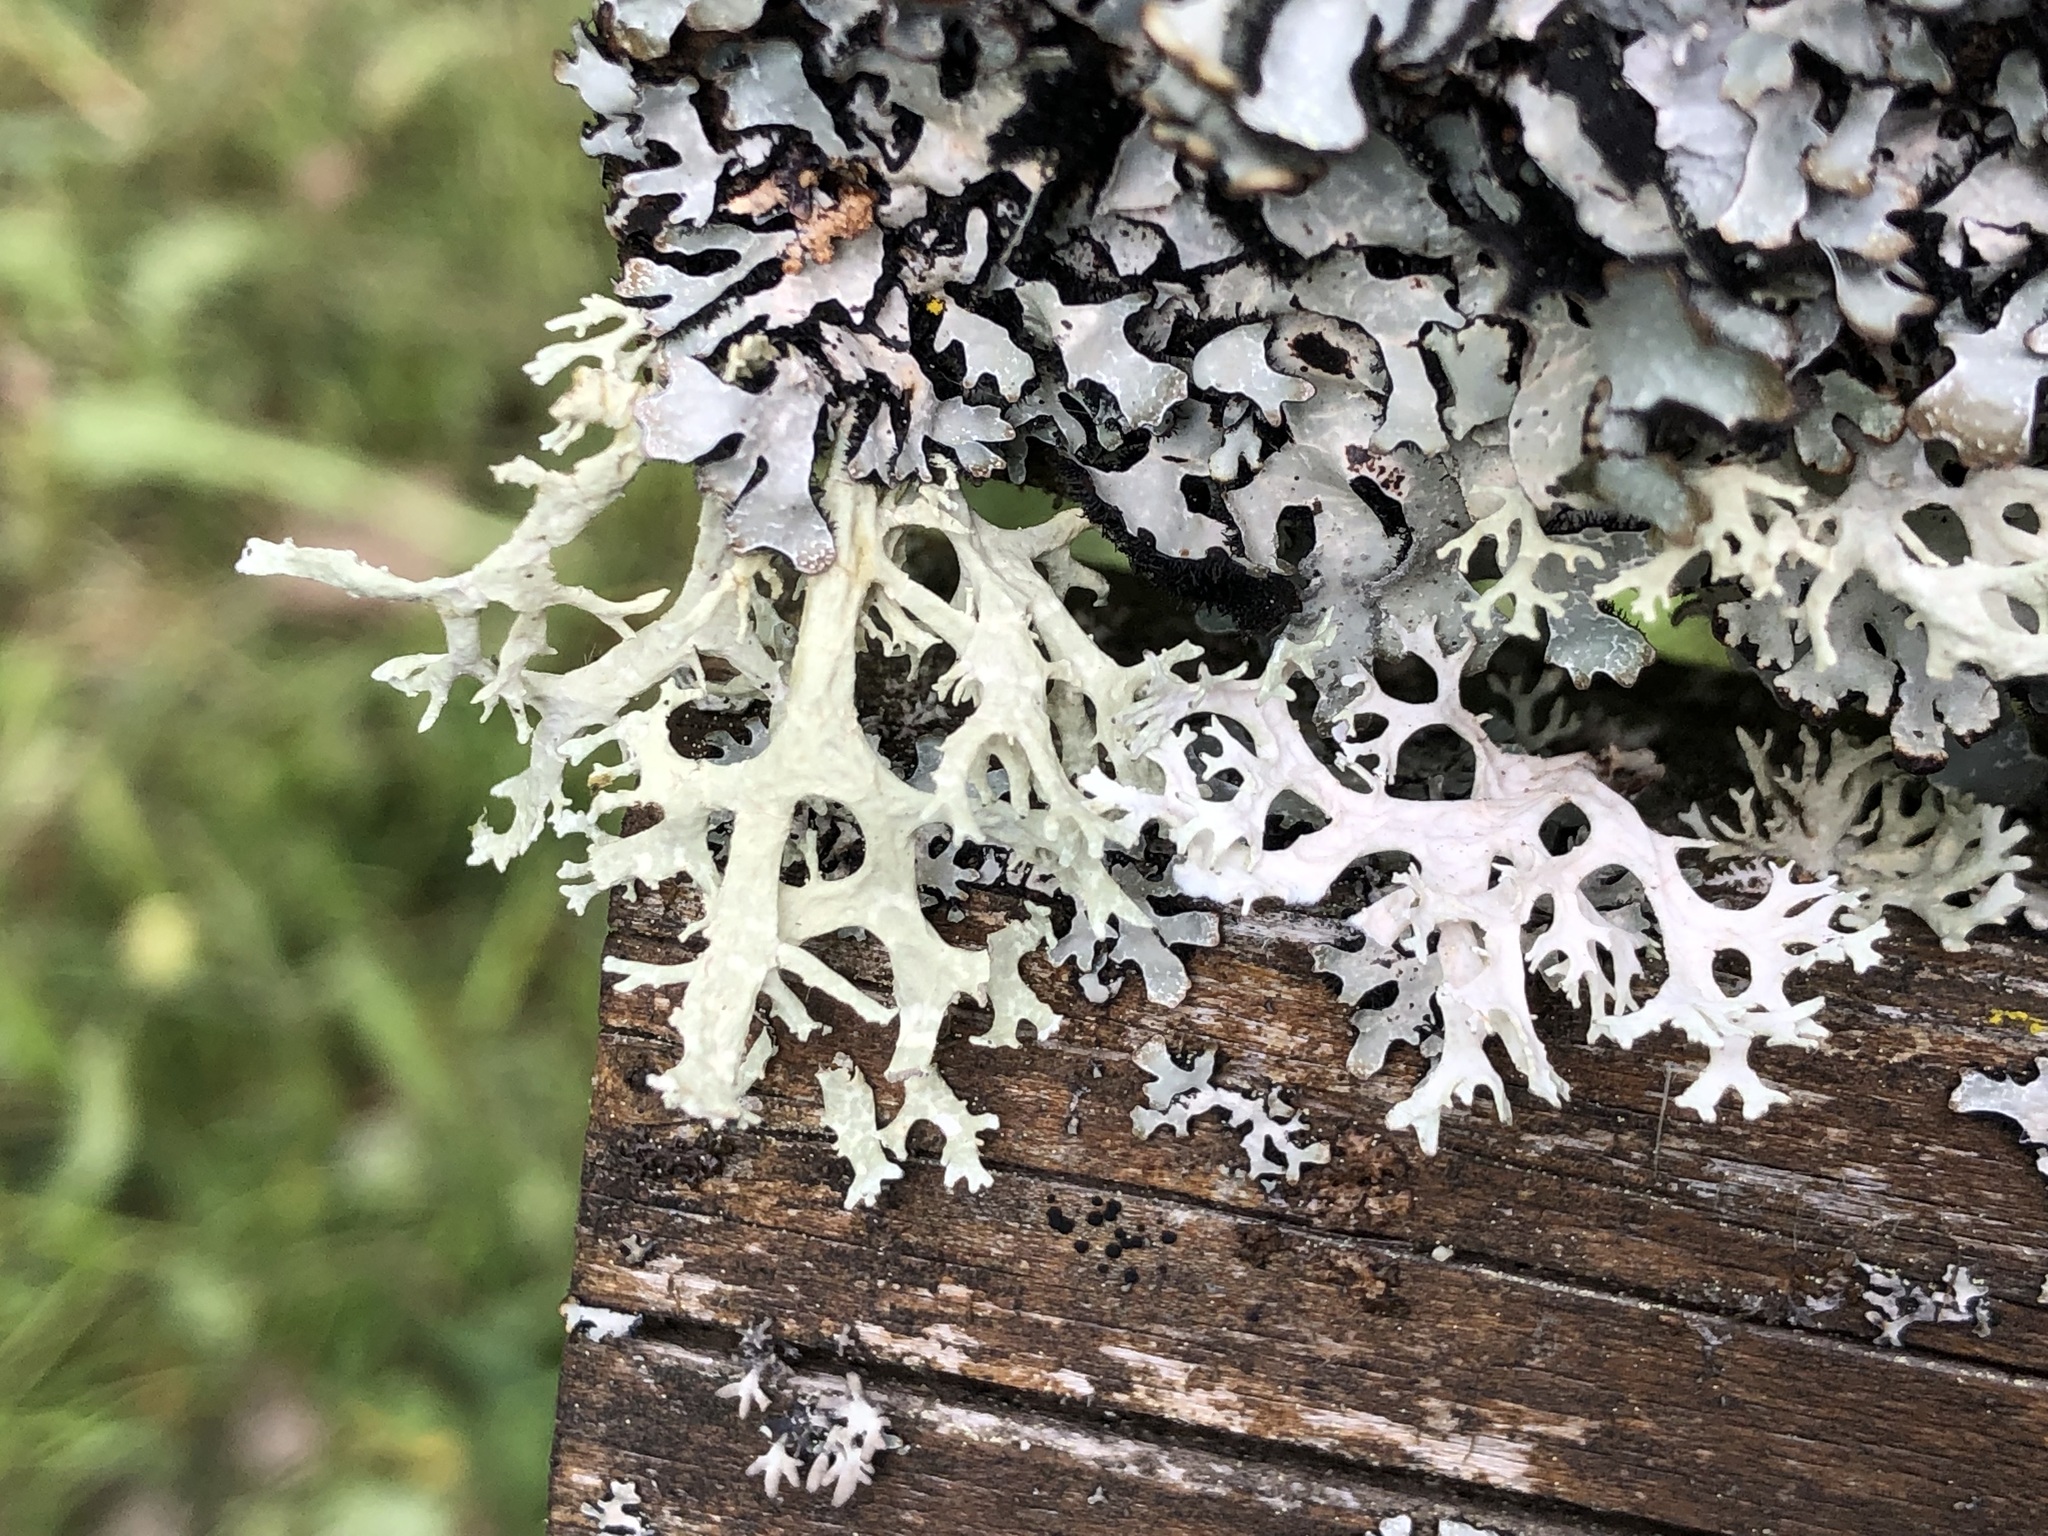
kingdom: Fungi
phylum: Ascomycota
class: Lecanoromycetes
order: Lecanorales
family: Parmeliaceae
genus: Evernia
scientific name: Evernia prunastri
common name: Oak moss
